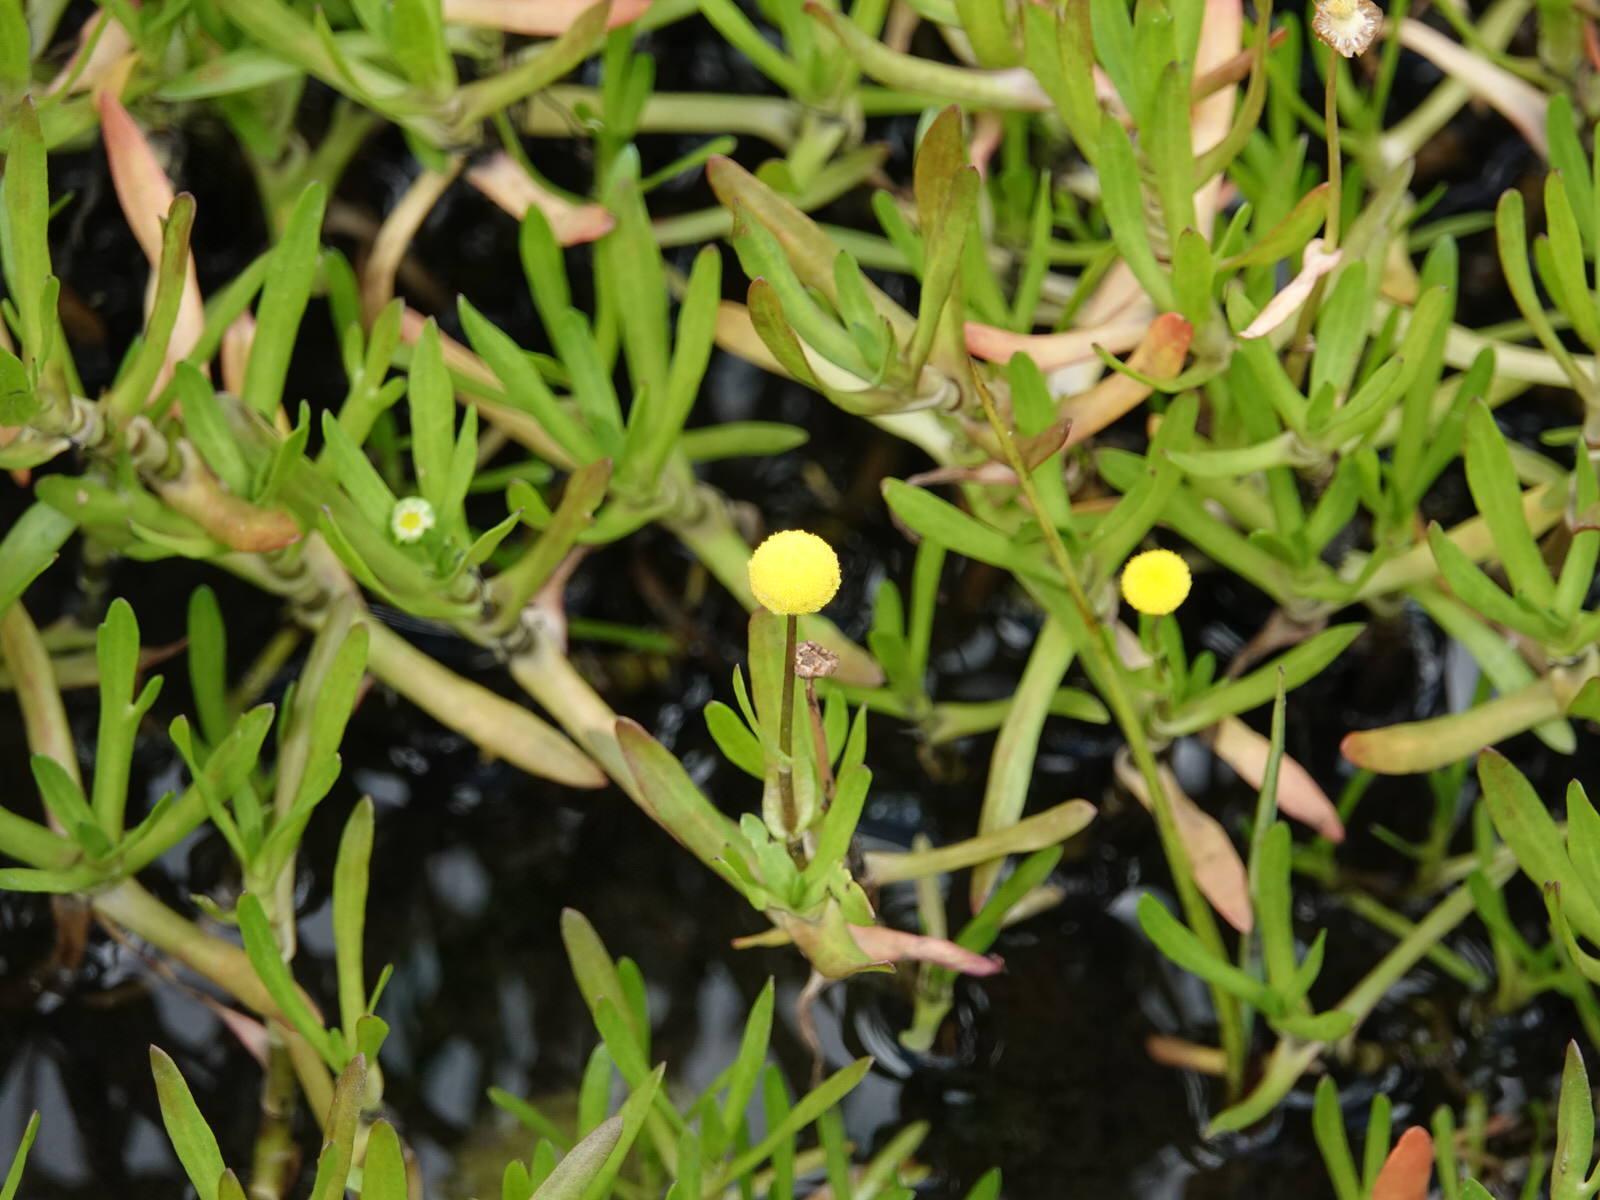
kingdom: Plantae
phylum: Tracheophyta
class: Magnoliopsida
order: Asterales
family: Asteraceae
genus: Cotula
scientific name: Cotula coronopifolia
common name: Buttonweed
